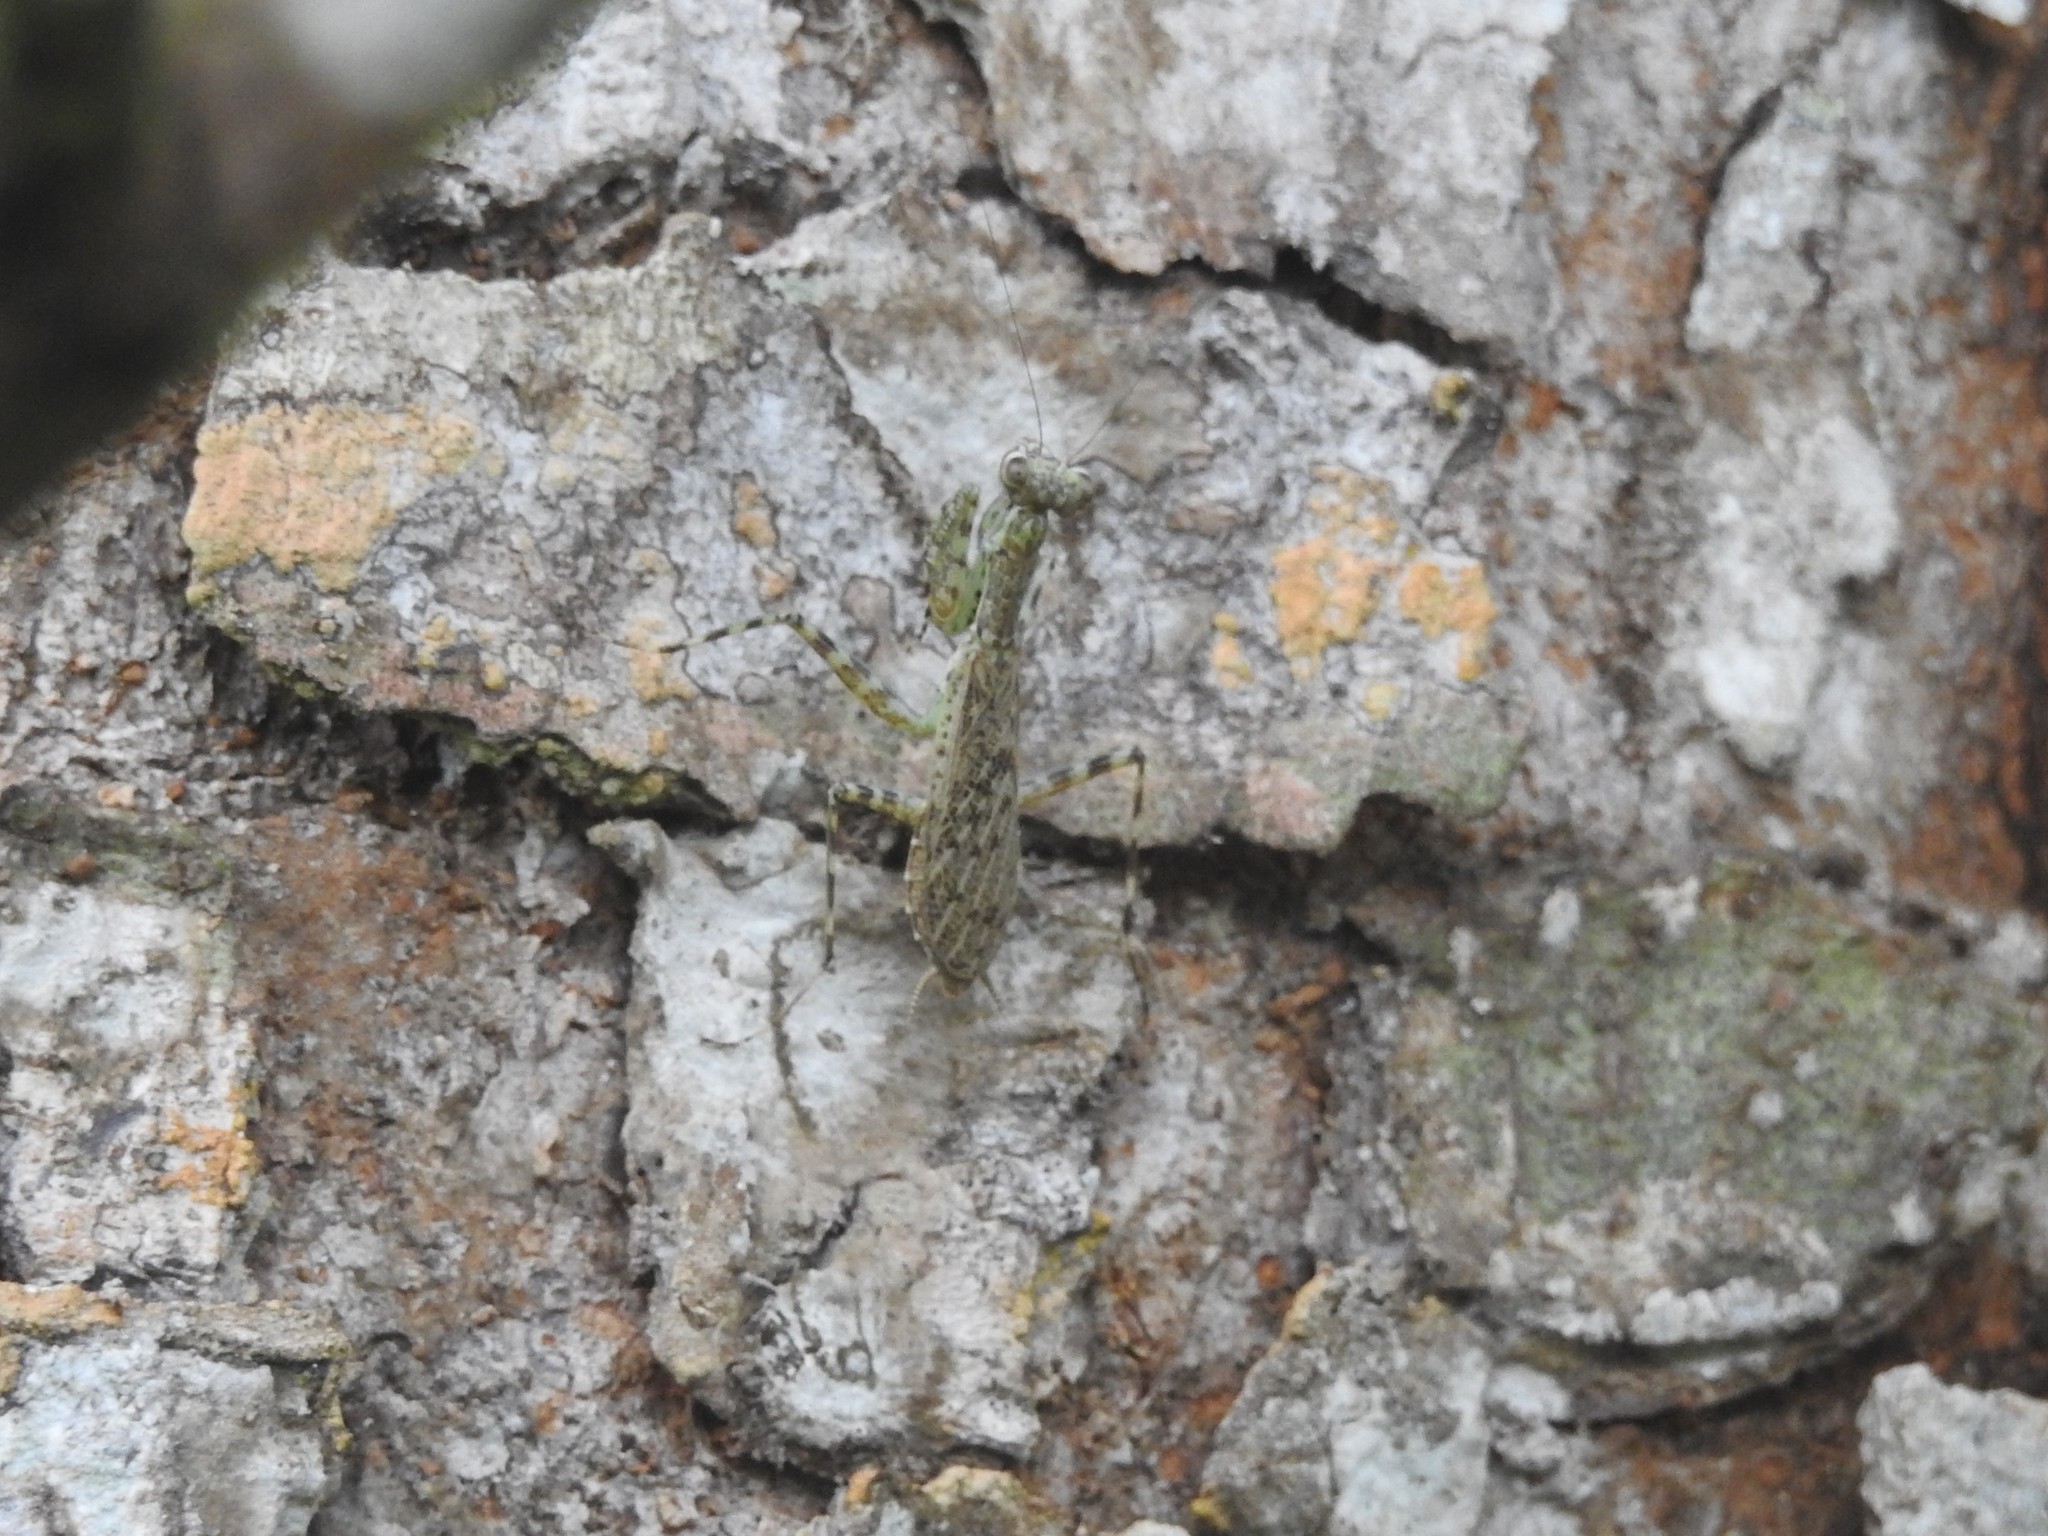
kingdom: Animalia
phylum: Arthropoda
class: Insecta
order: Mantodea
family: Liturgusidae
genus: Liturgusa
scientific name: Liturgusa maya
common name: Mantis
